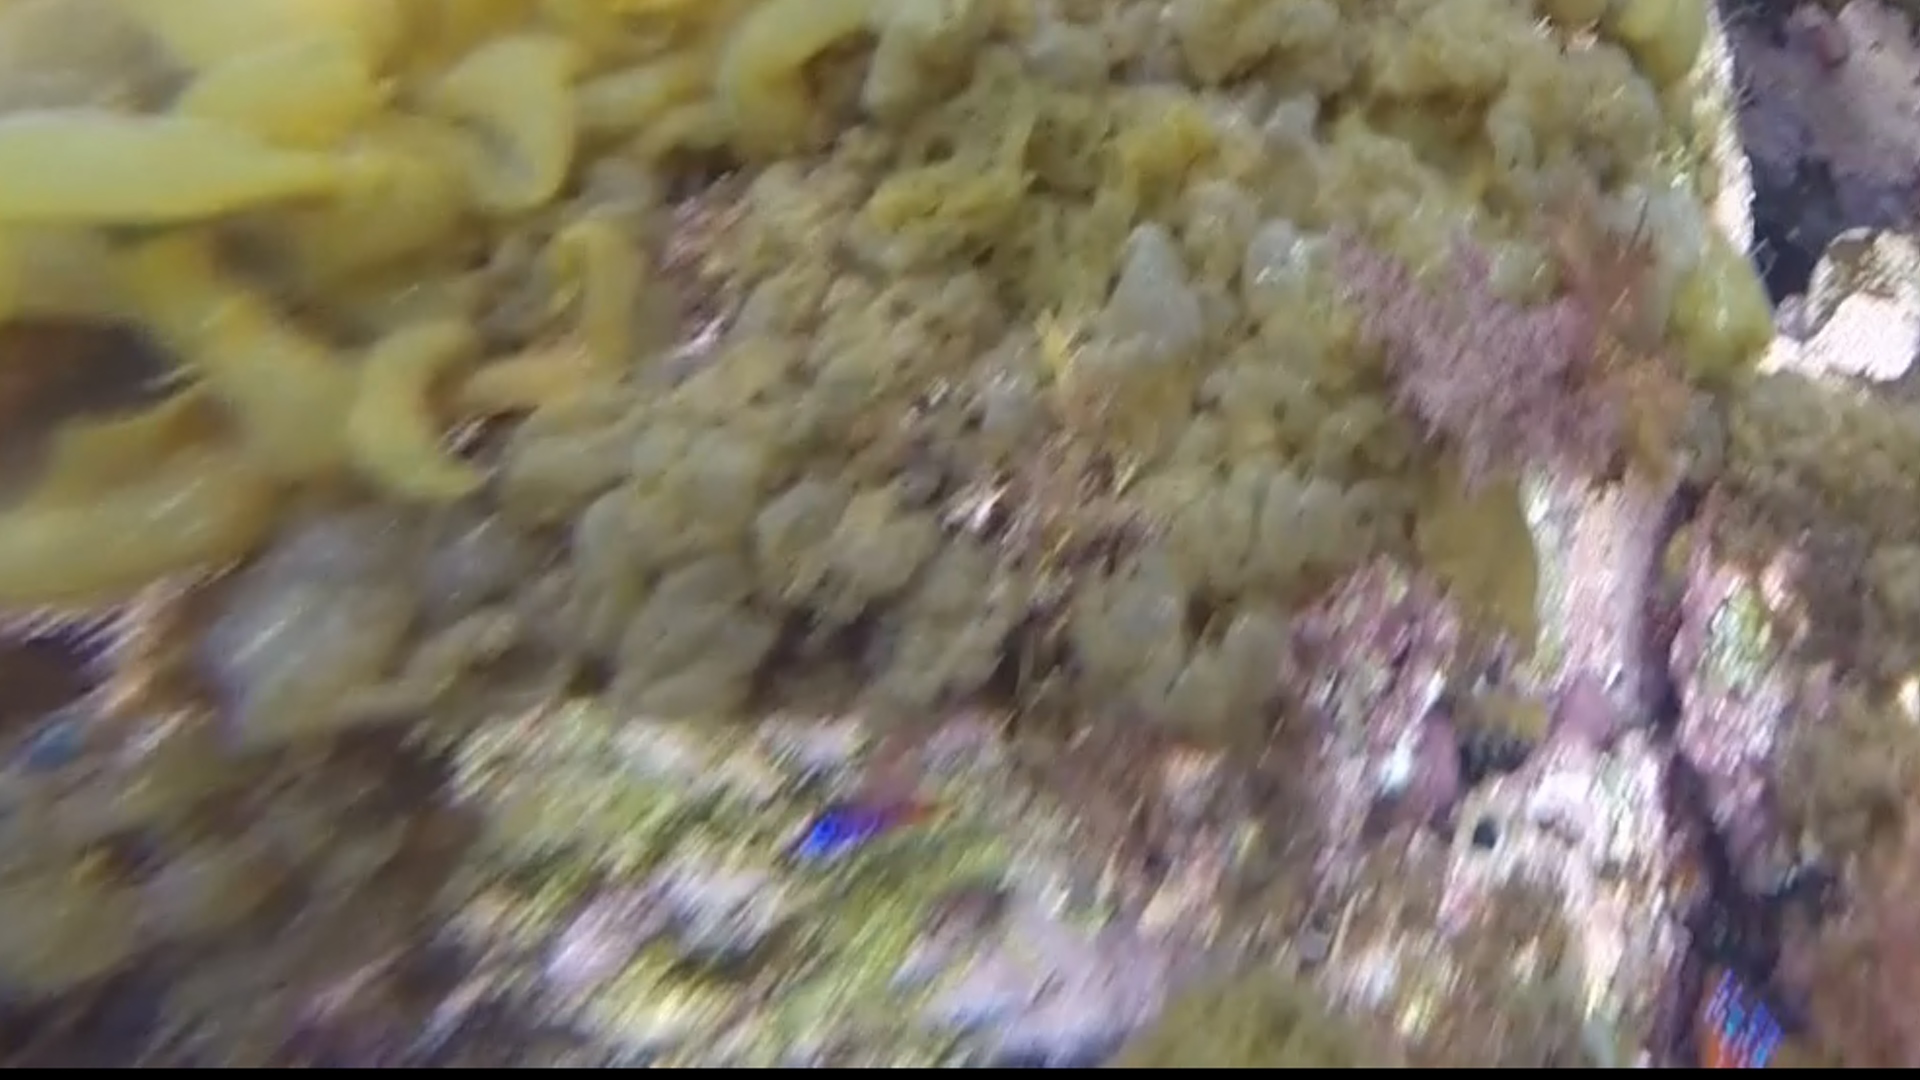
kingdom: Animalia
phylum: Chordata
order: Perciformes
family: Gobiidae
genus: Lythrypnus
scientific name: Lythrypnus dalli
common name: Bluebanded goby
